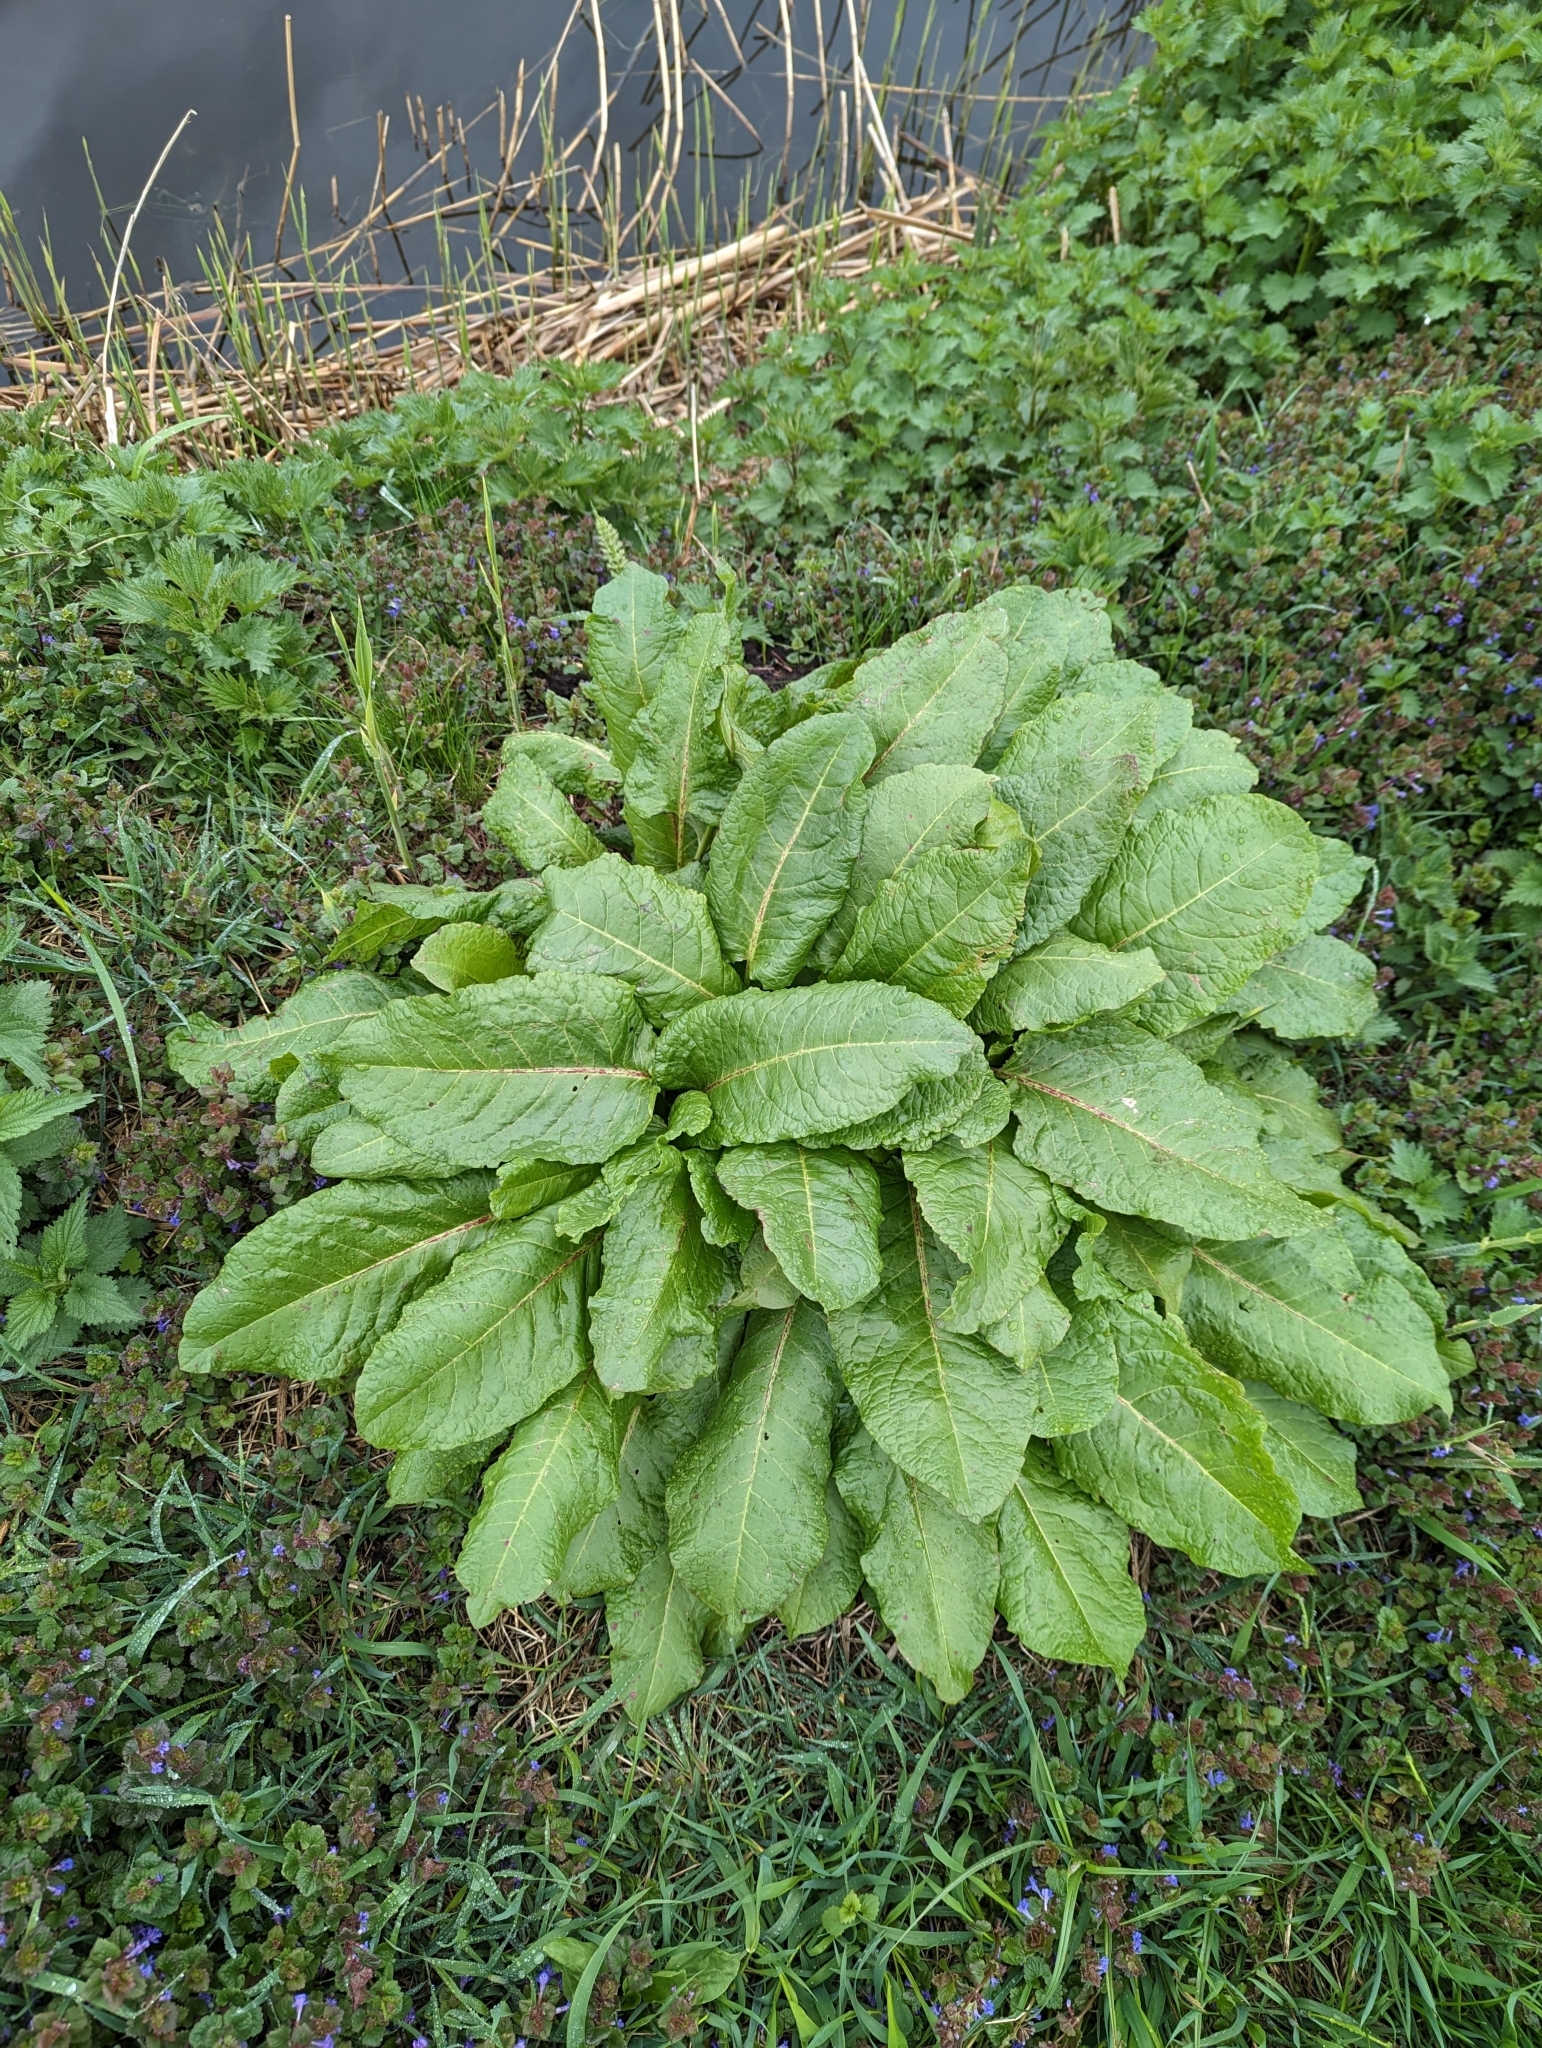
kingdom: Plantae
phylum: Tracheophyta
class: Magnoliopsida
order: Caryophyllales
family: Polygonaceae
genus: Rumex
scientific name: Rumex obtusifolius
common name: Bitter dock
